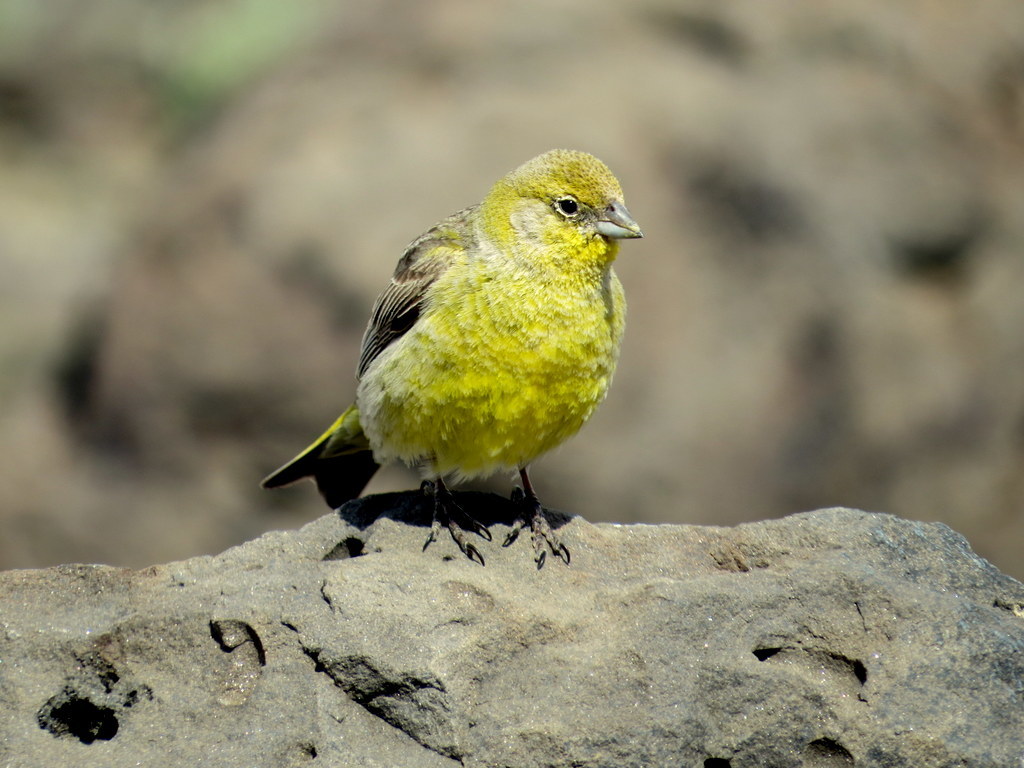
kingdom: Animalia
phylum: Chordata
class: Aves
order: Passeriformes
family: Thraupidae
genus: Sicalis
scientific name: Sicalis auriventris
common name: Greater yellow finch
